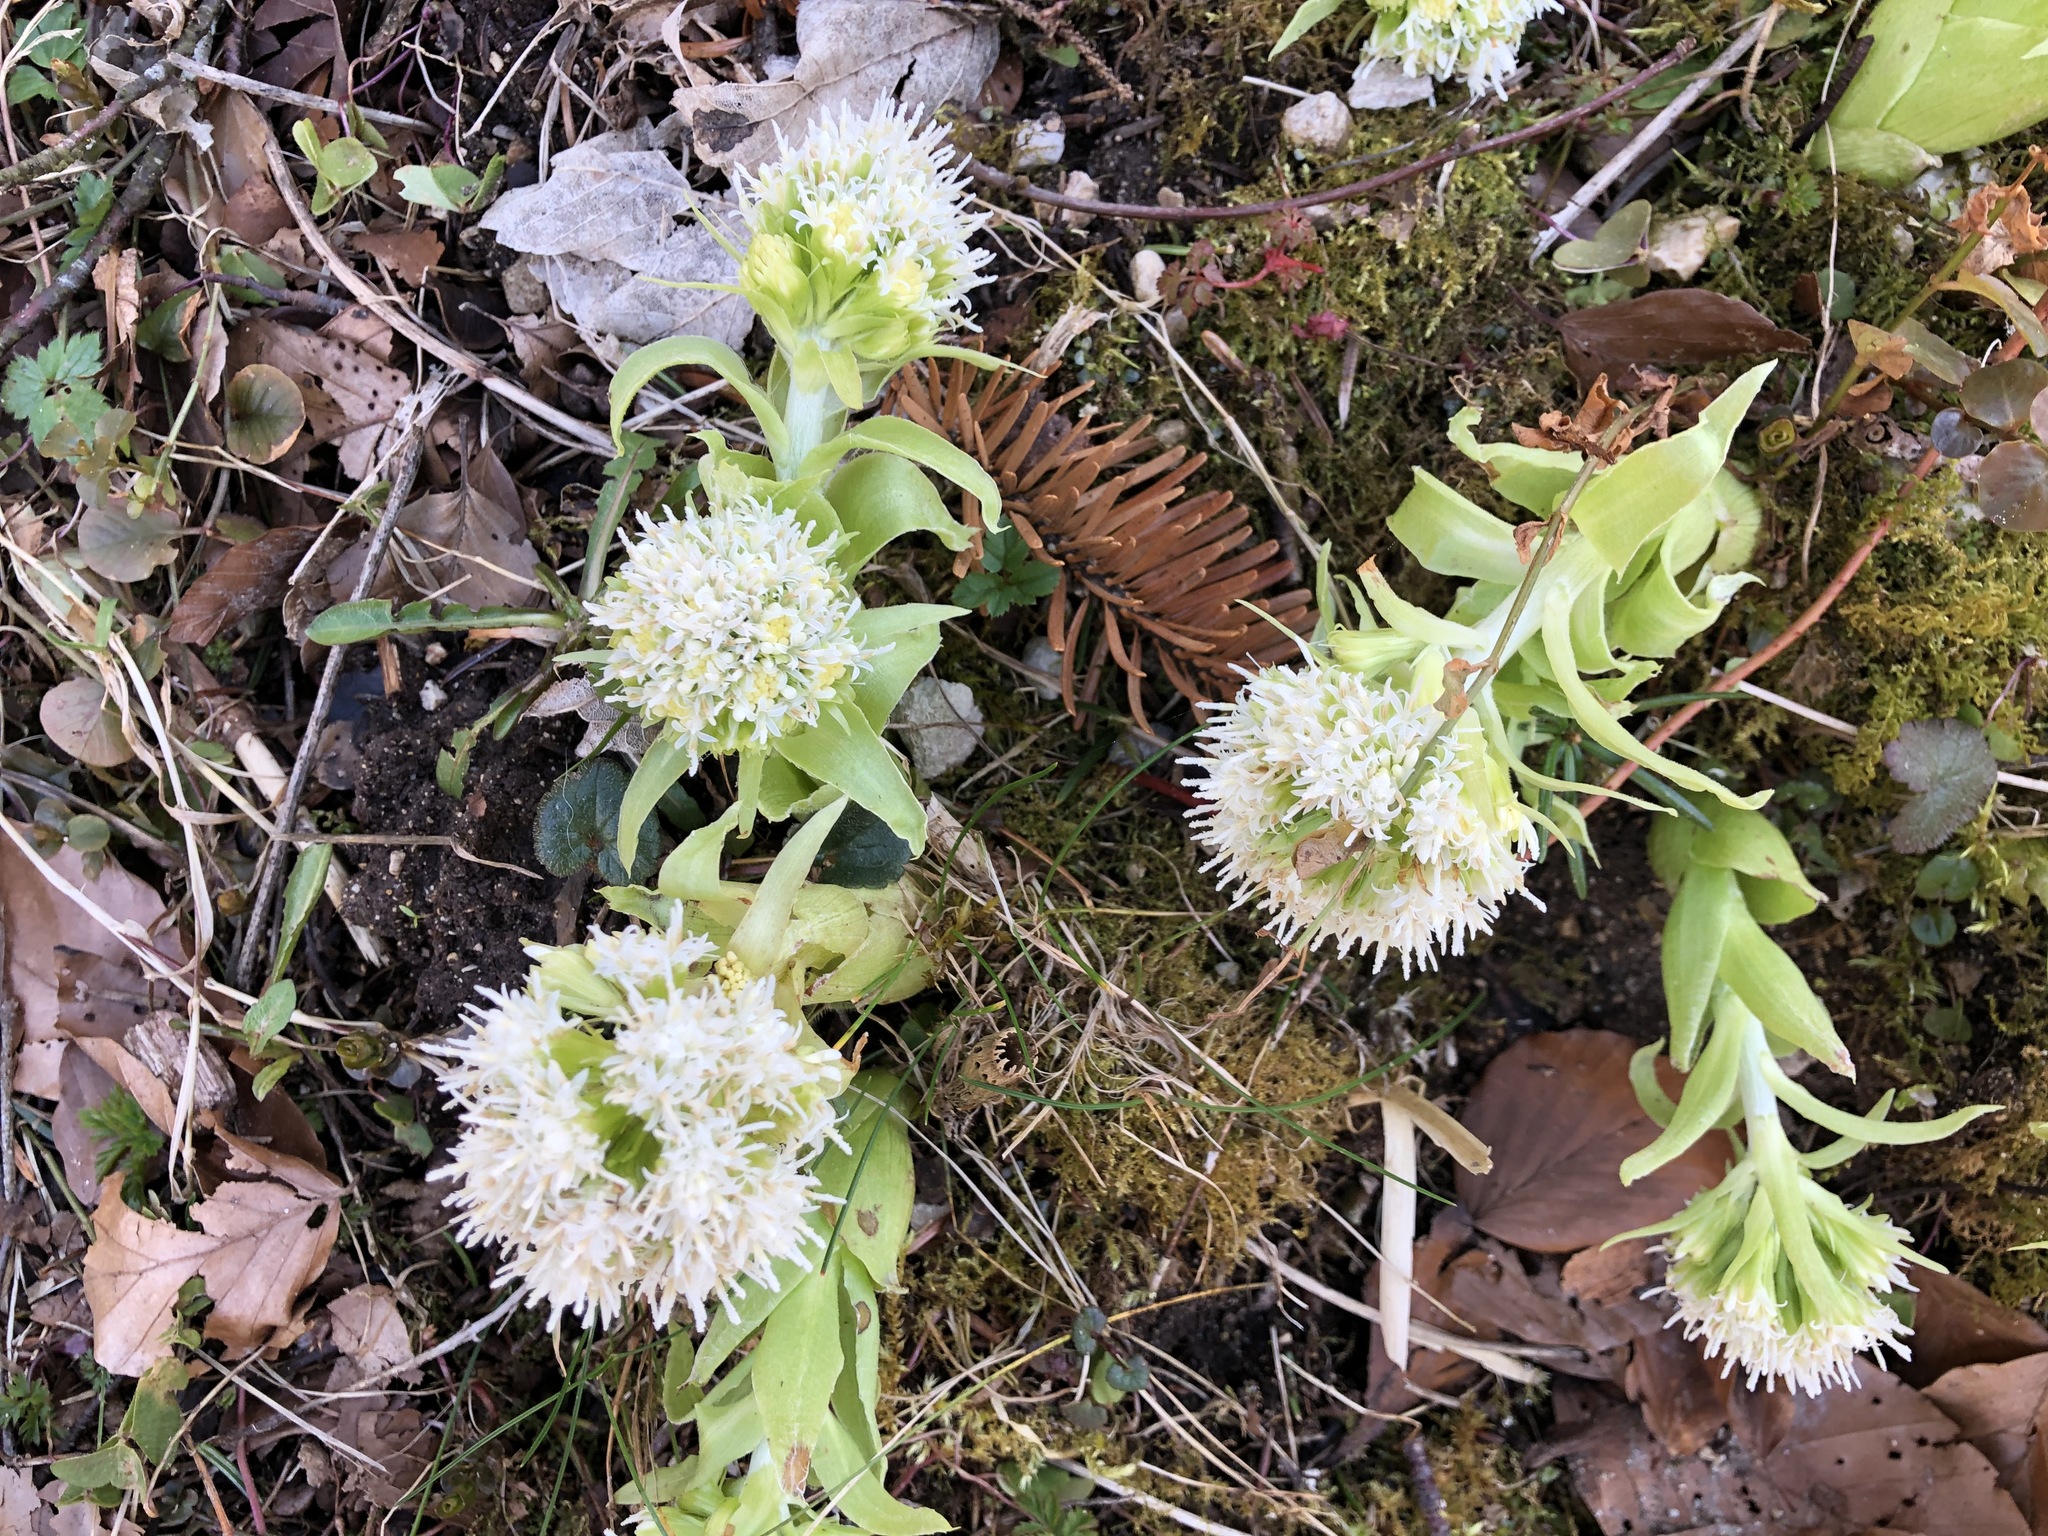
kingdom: Plantae
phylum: Tracheophyta
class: Magnoliopsida
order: Asterales
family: Asteraceae
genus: Petasites
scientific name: Petasites albus
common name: White butterbur
